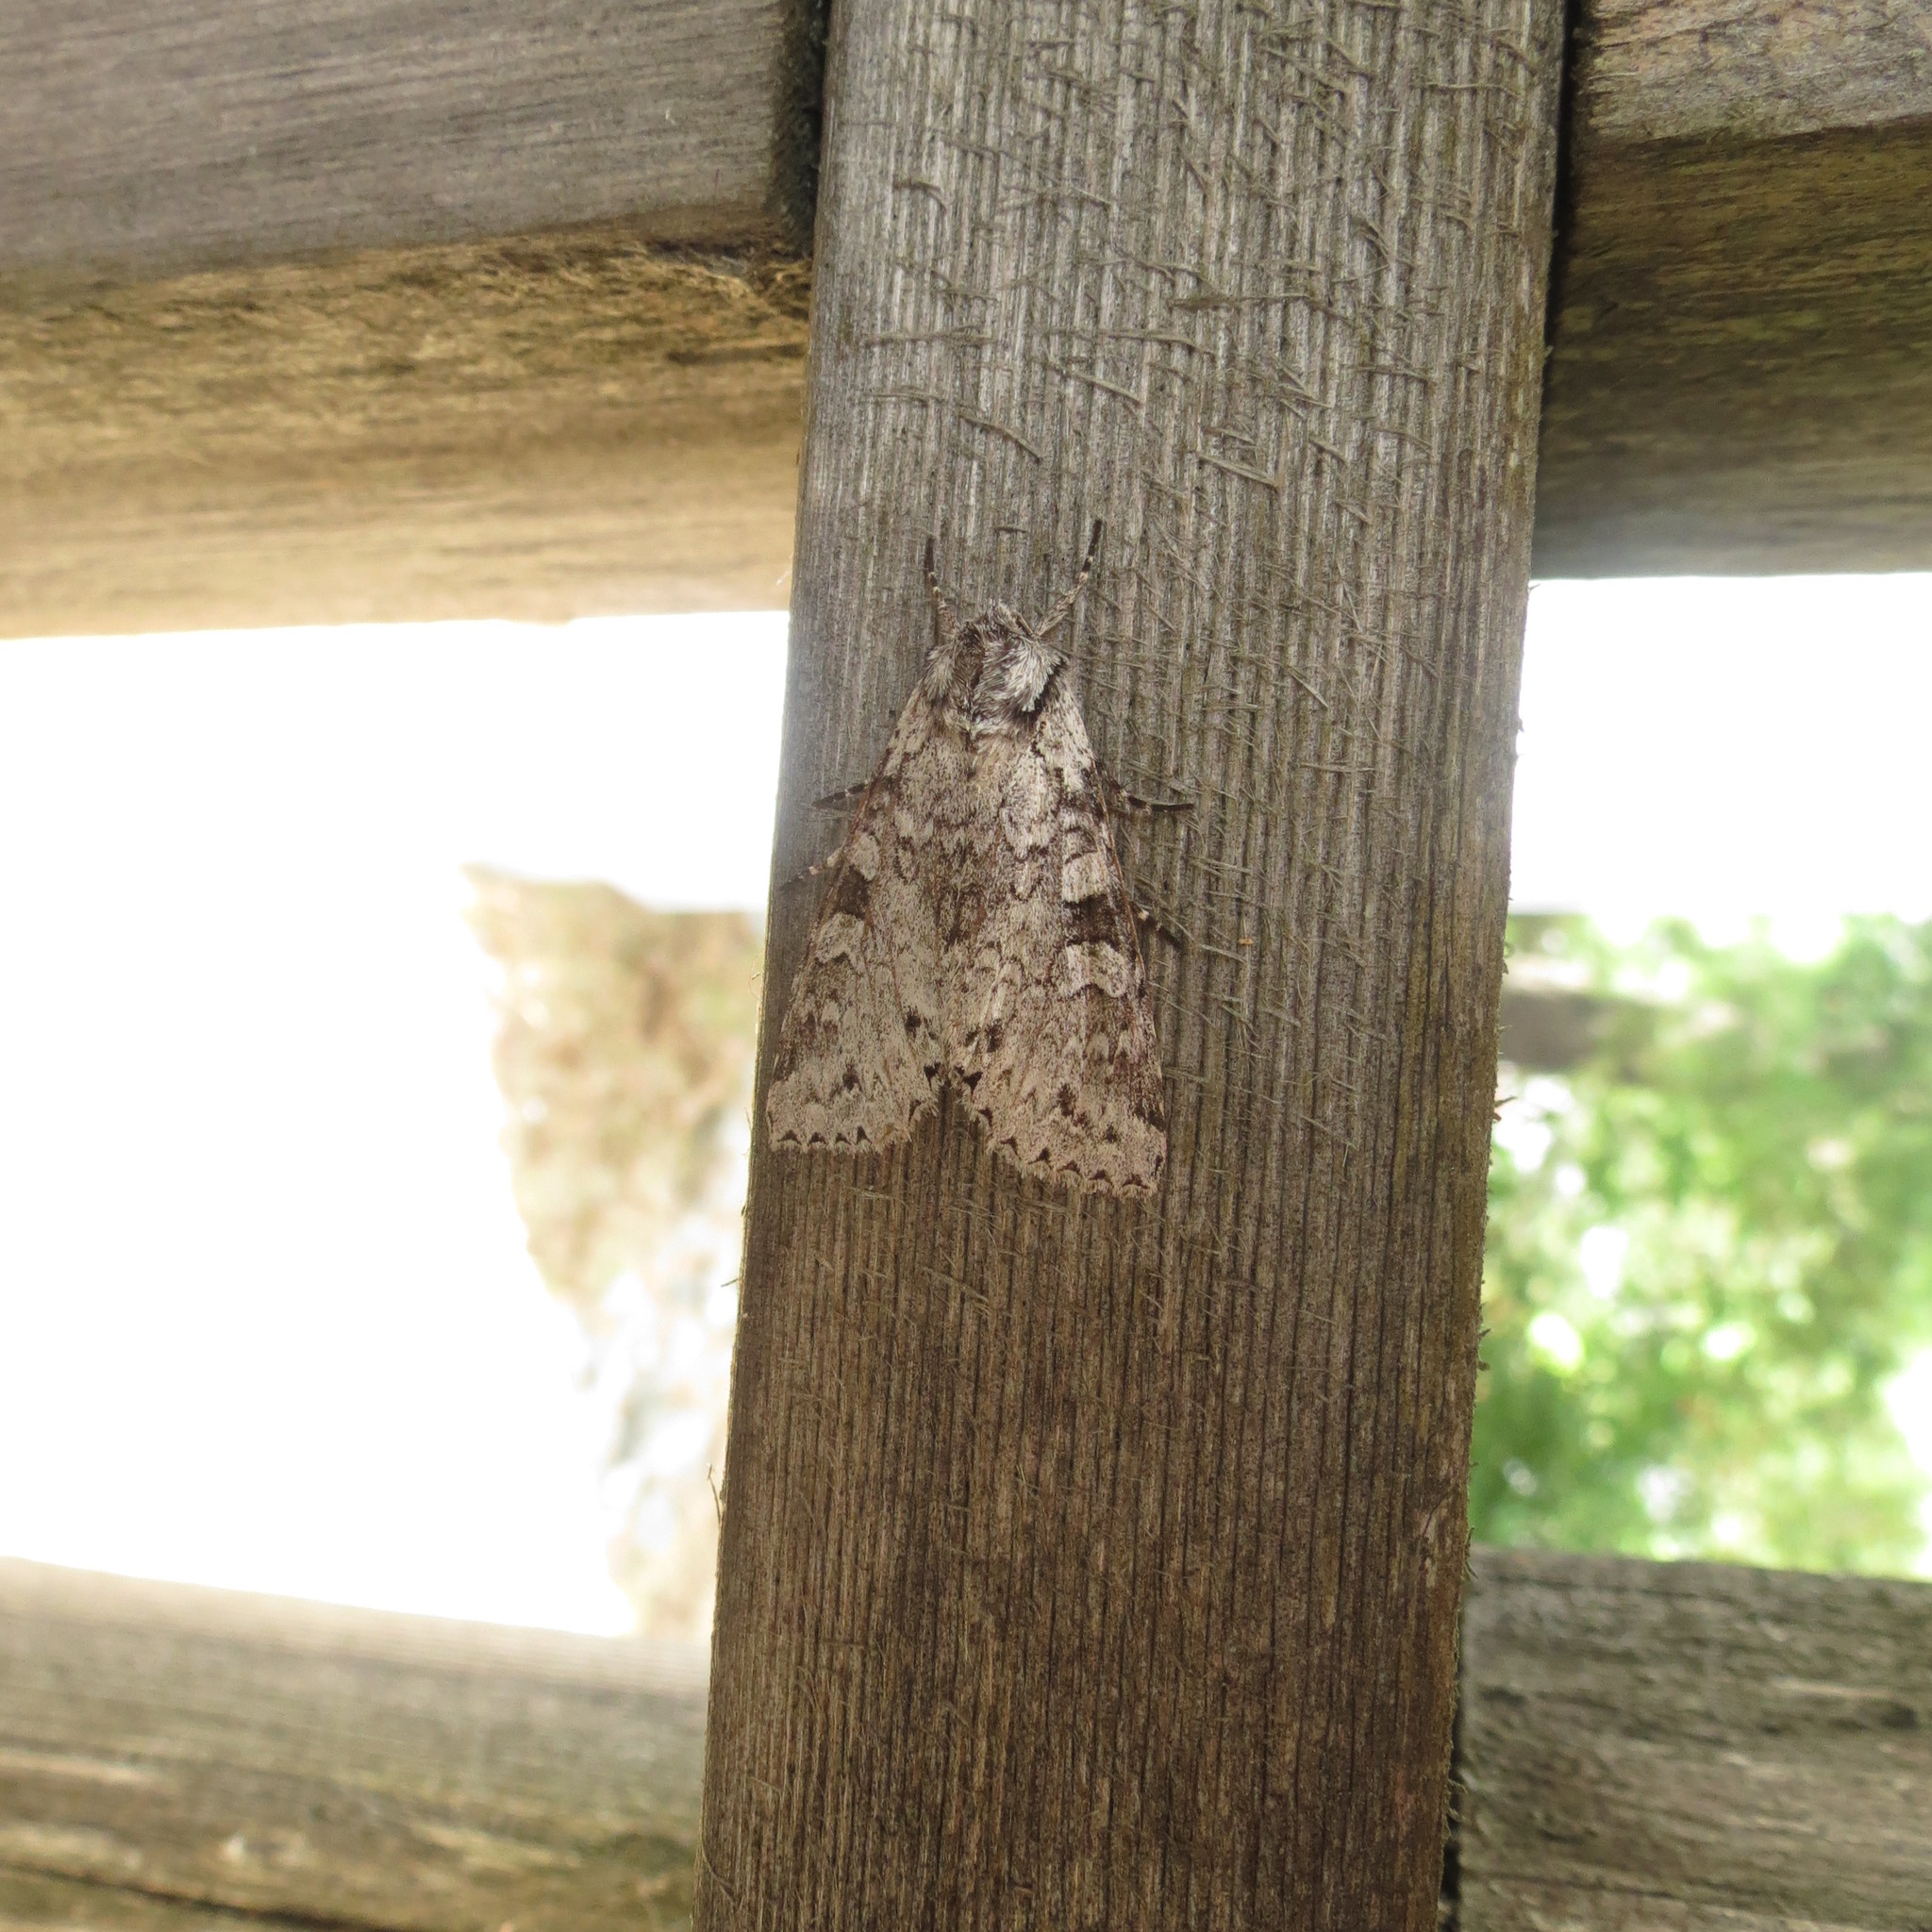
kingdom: Animalia
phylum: Arthropoda
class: Insecta
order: Lepidoptera
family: Noctuidae
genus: Polia
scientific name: Polia nimbosa
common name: Stormy arches
